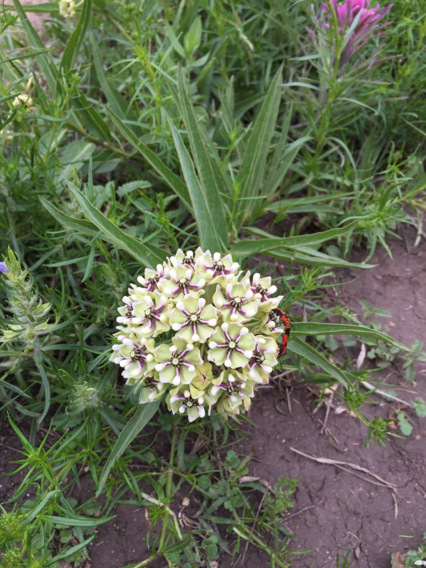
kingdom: Plantae
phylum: Tracheophyta
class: Magnoliopsida
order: Gentianales
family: Apocynaceae
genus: Asclepias
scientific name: Asclepias asperula
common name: Antelope horns
